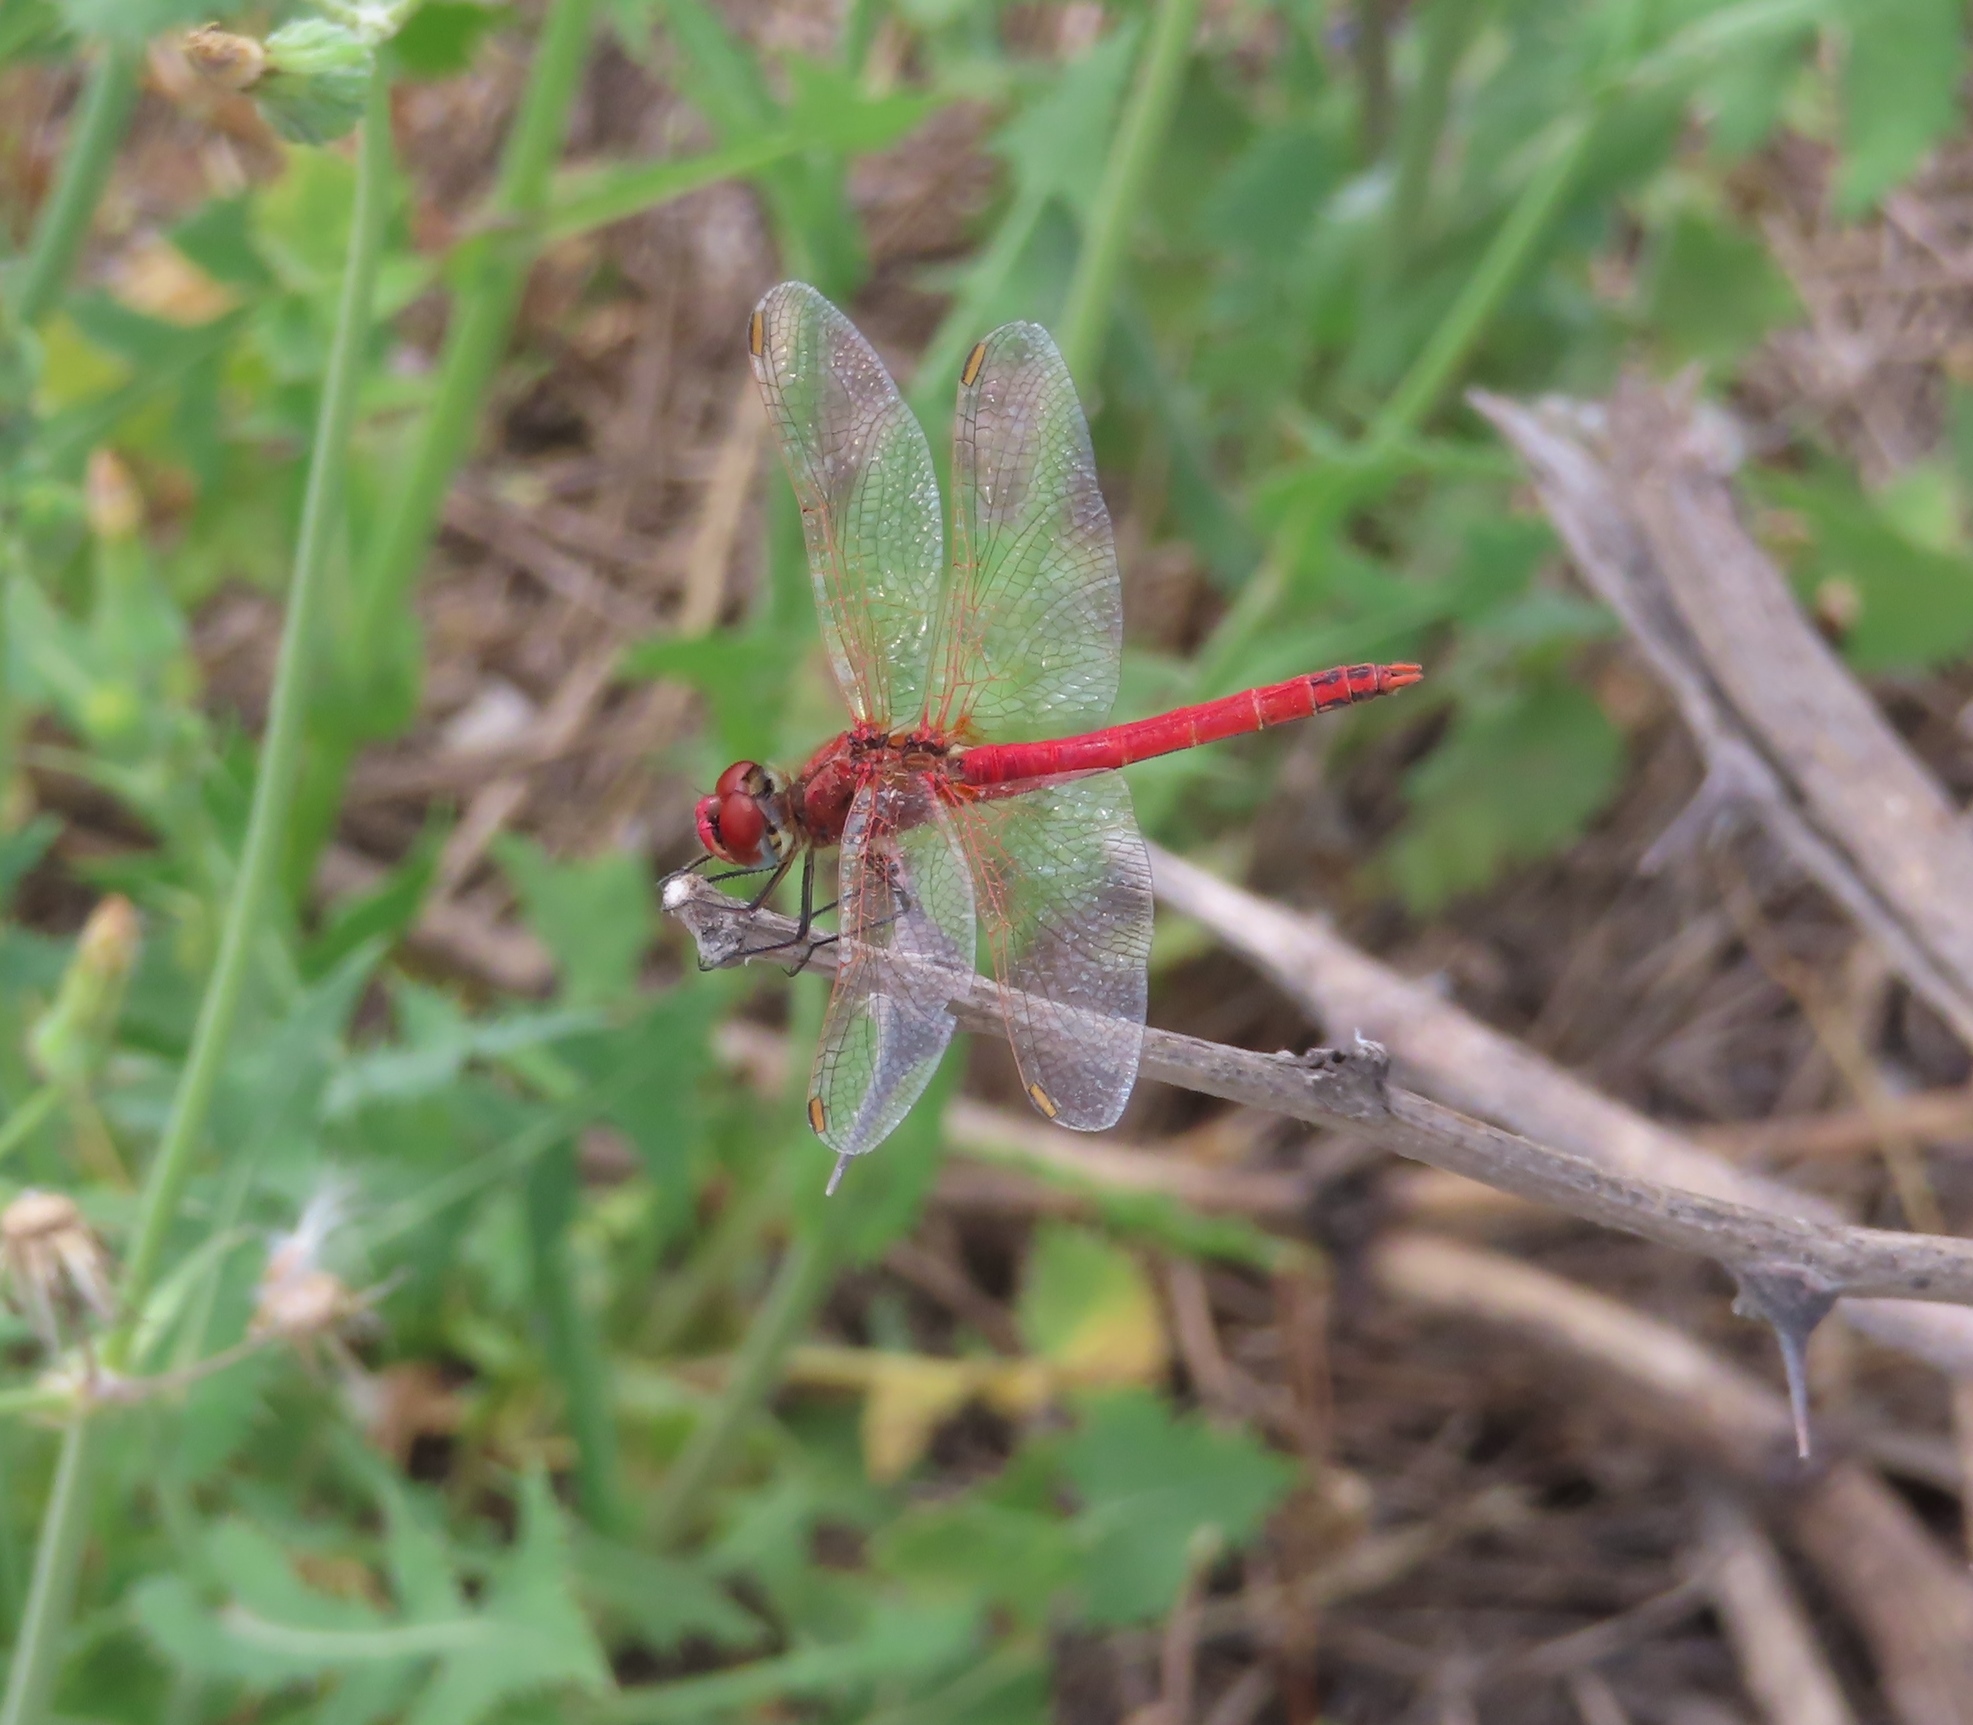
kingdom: Animalia
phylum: Arthropoda
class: Insecta
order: Odonata
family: Libellulidae
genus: Sympetrum
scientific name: Sympetrum fonscolombii
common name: Red-veined darter
